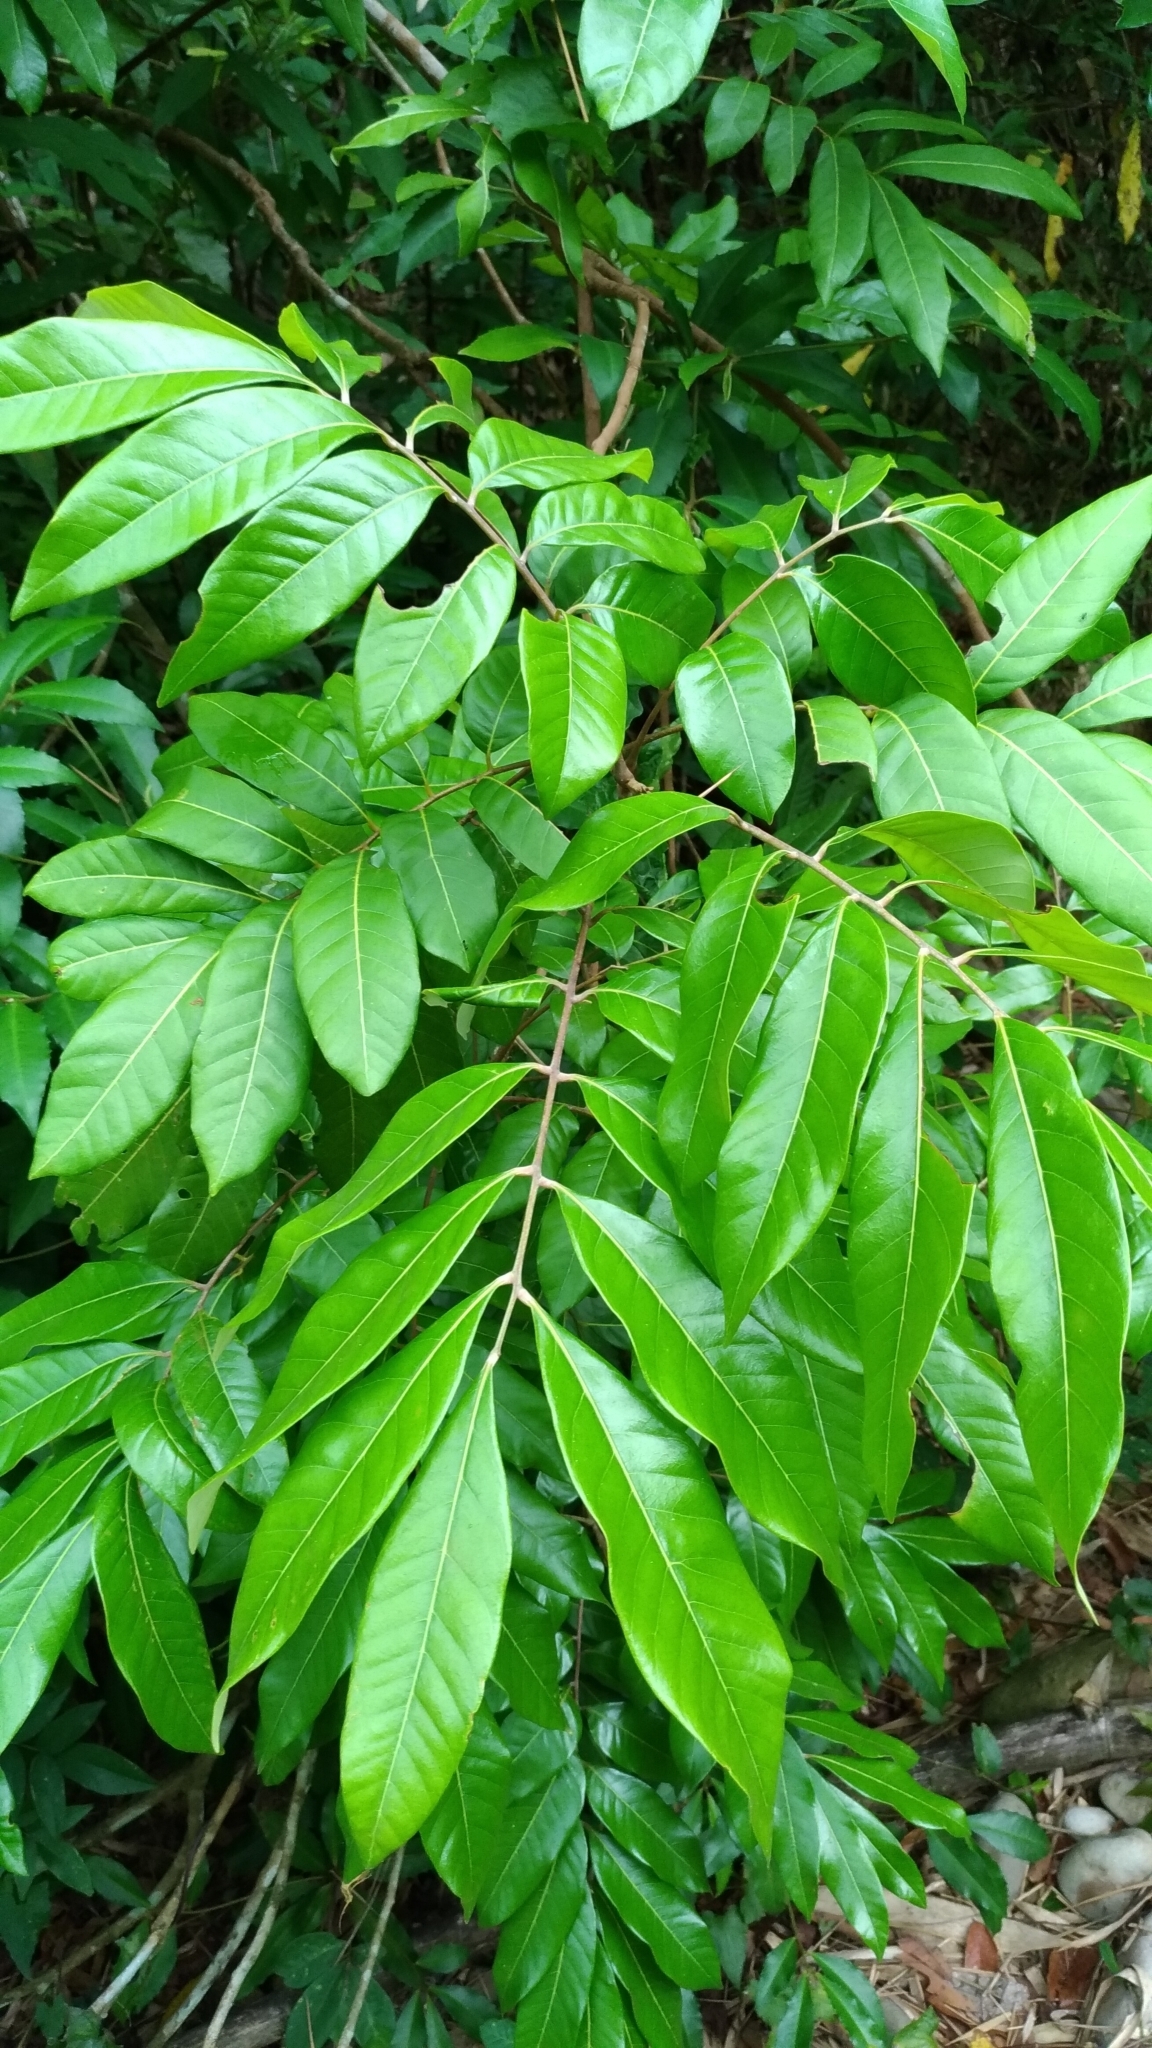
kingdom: Plantae
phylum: Tracheophyta
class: Magnoliopsida
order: Sapindales
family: Sapindaceae
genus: Dimocarpus
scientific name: Dimocarpus longan
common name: Longan
